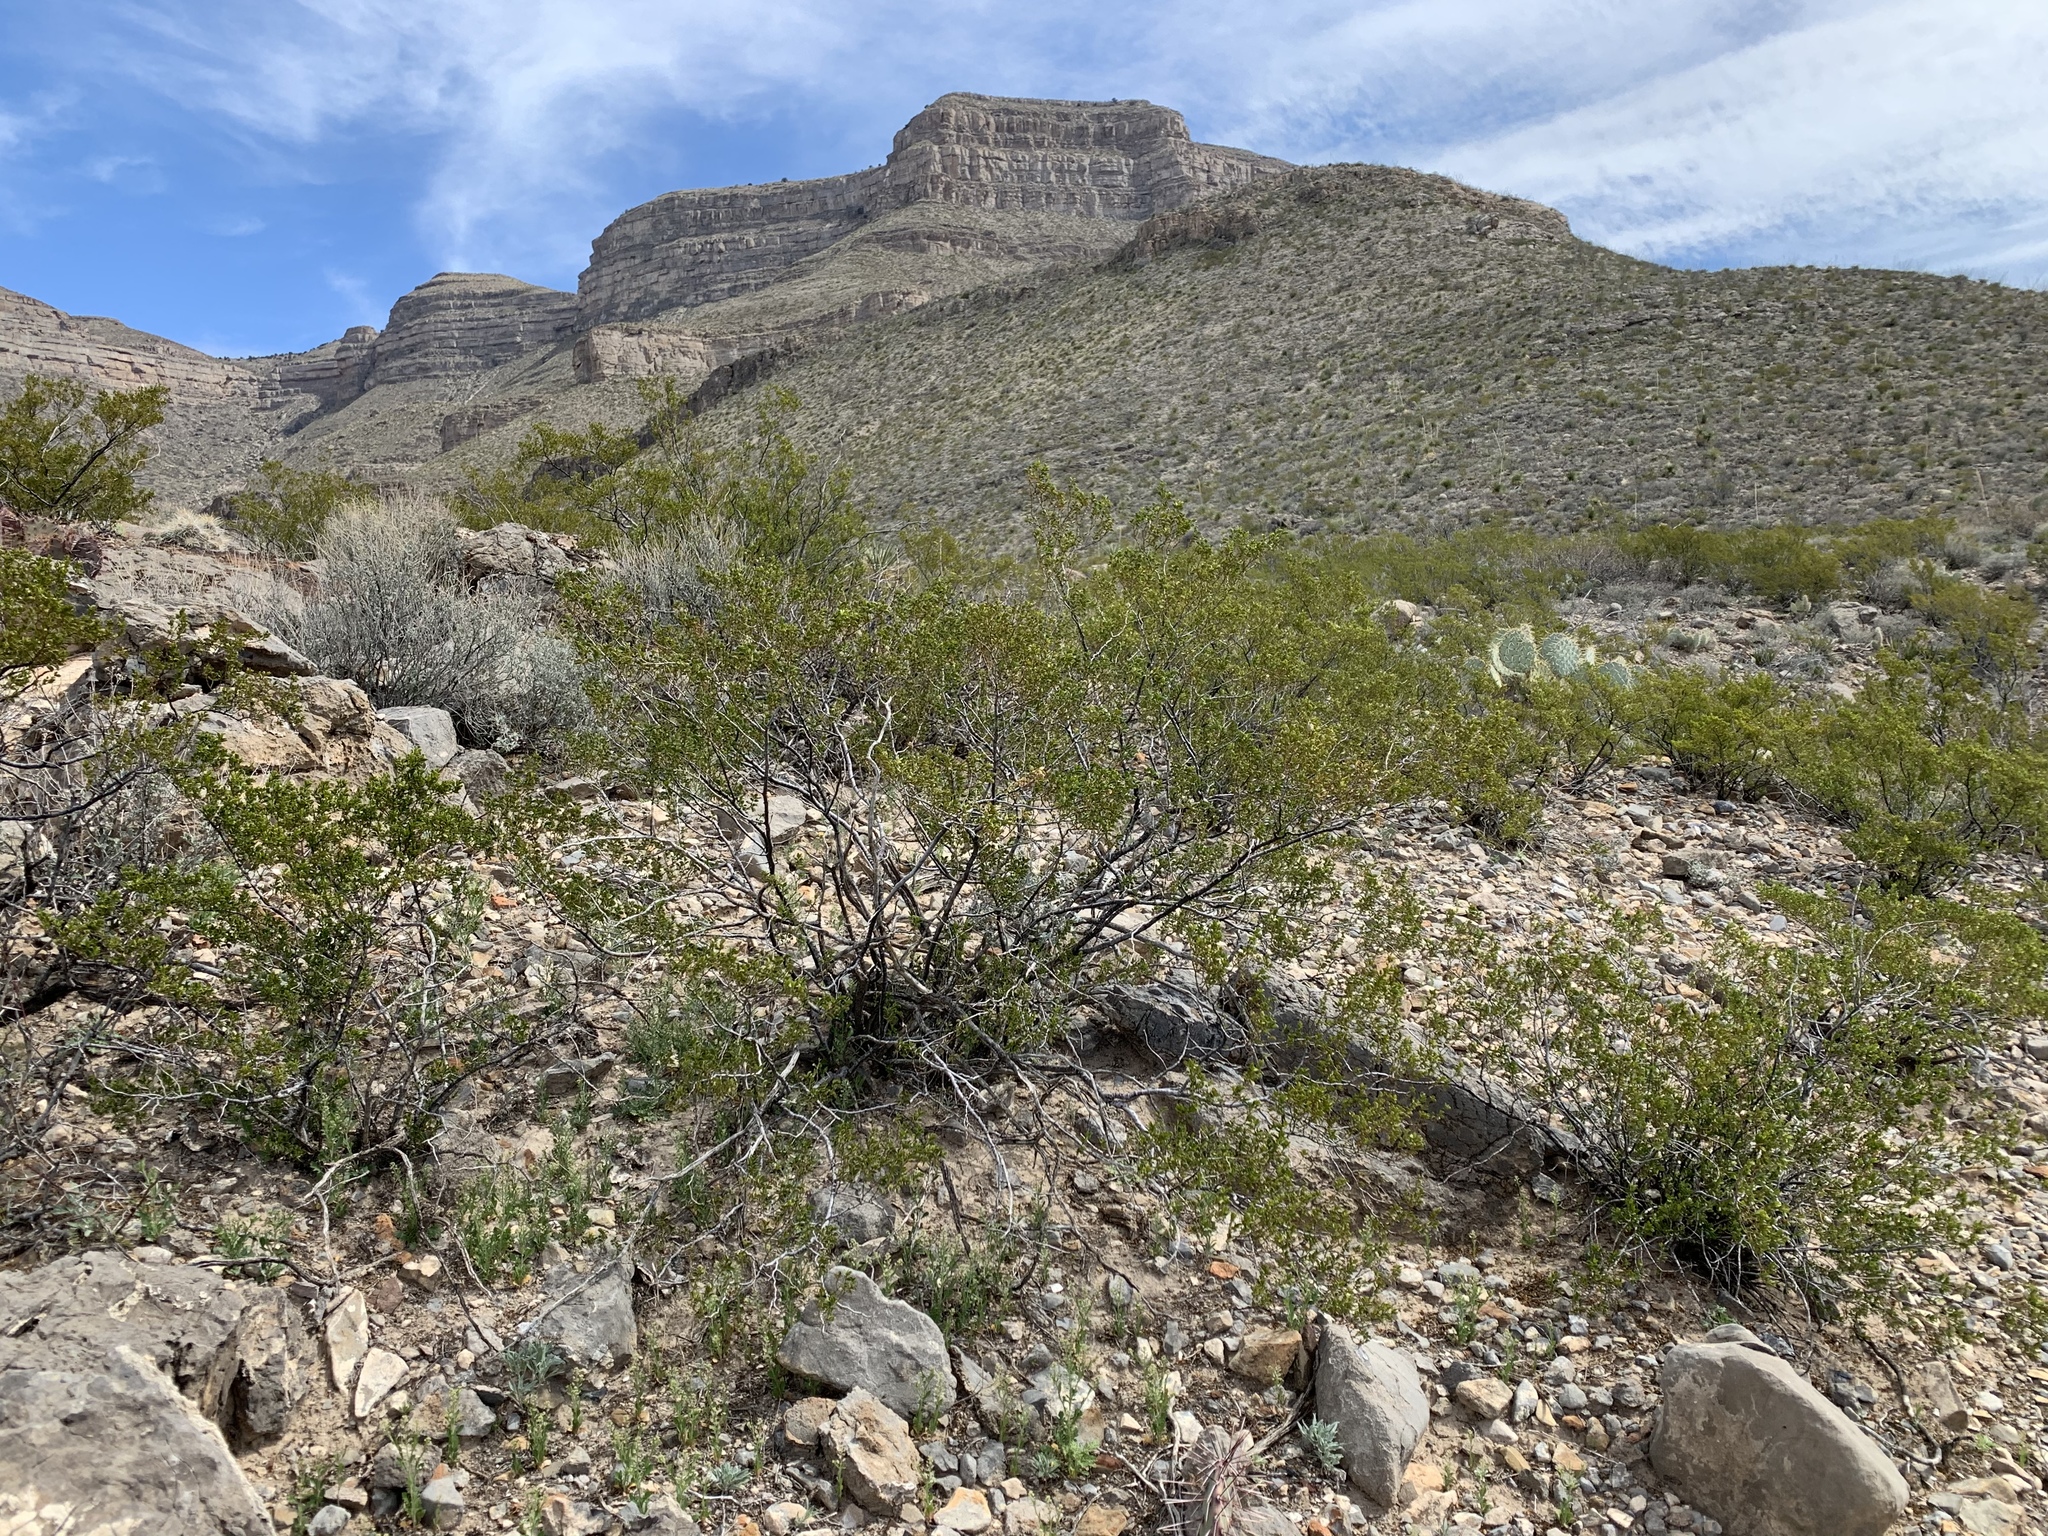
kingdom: Plantae
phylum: Tracheophyta
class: Magnoliopsida
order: Zygophyllales
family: Zygophyllaceae
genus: Larrea
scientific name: Larrea tridentata
